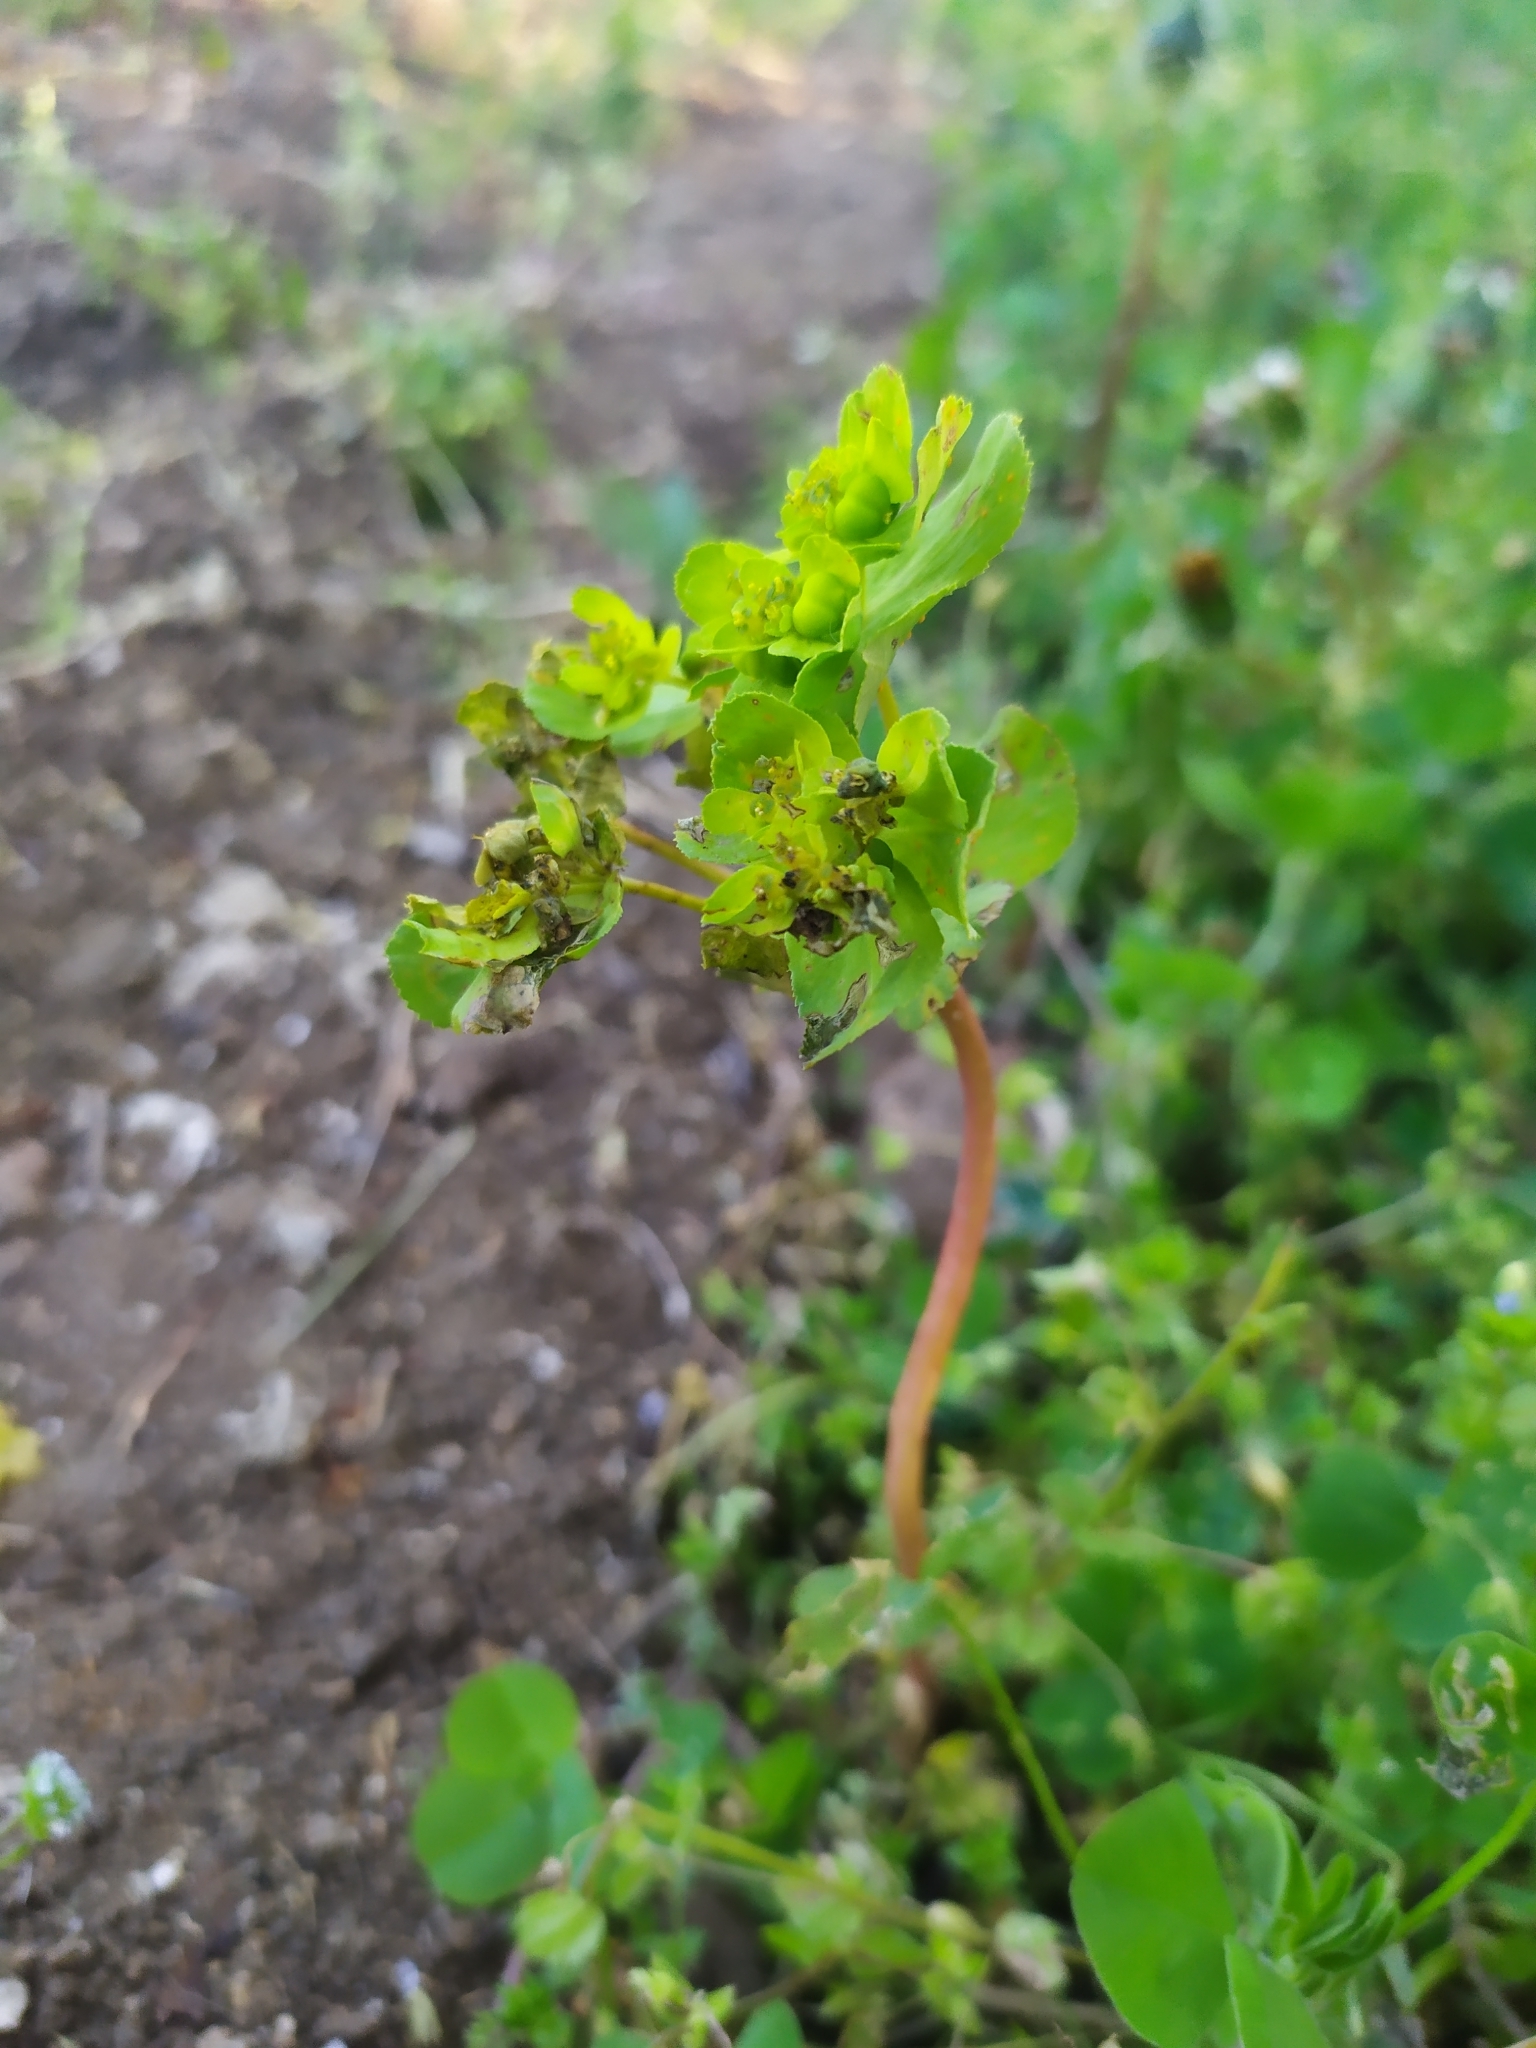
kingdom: Plantae
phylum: Tracheophyta
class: Magnoliopsida
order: Malpighiales
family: Euphorbiaceae
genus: Euphorbia
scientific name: Euphorbia helioscopia
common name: Sun spurge
